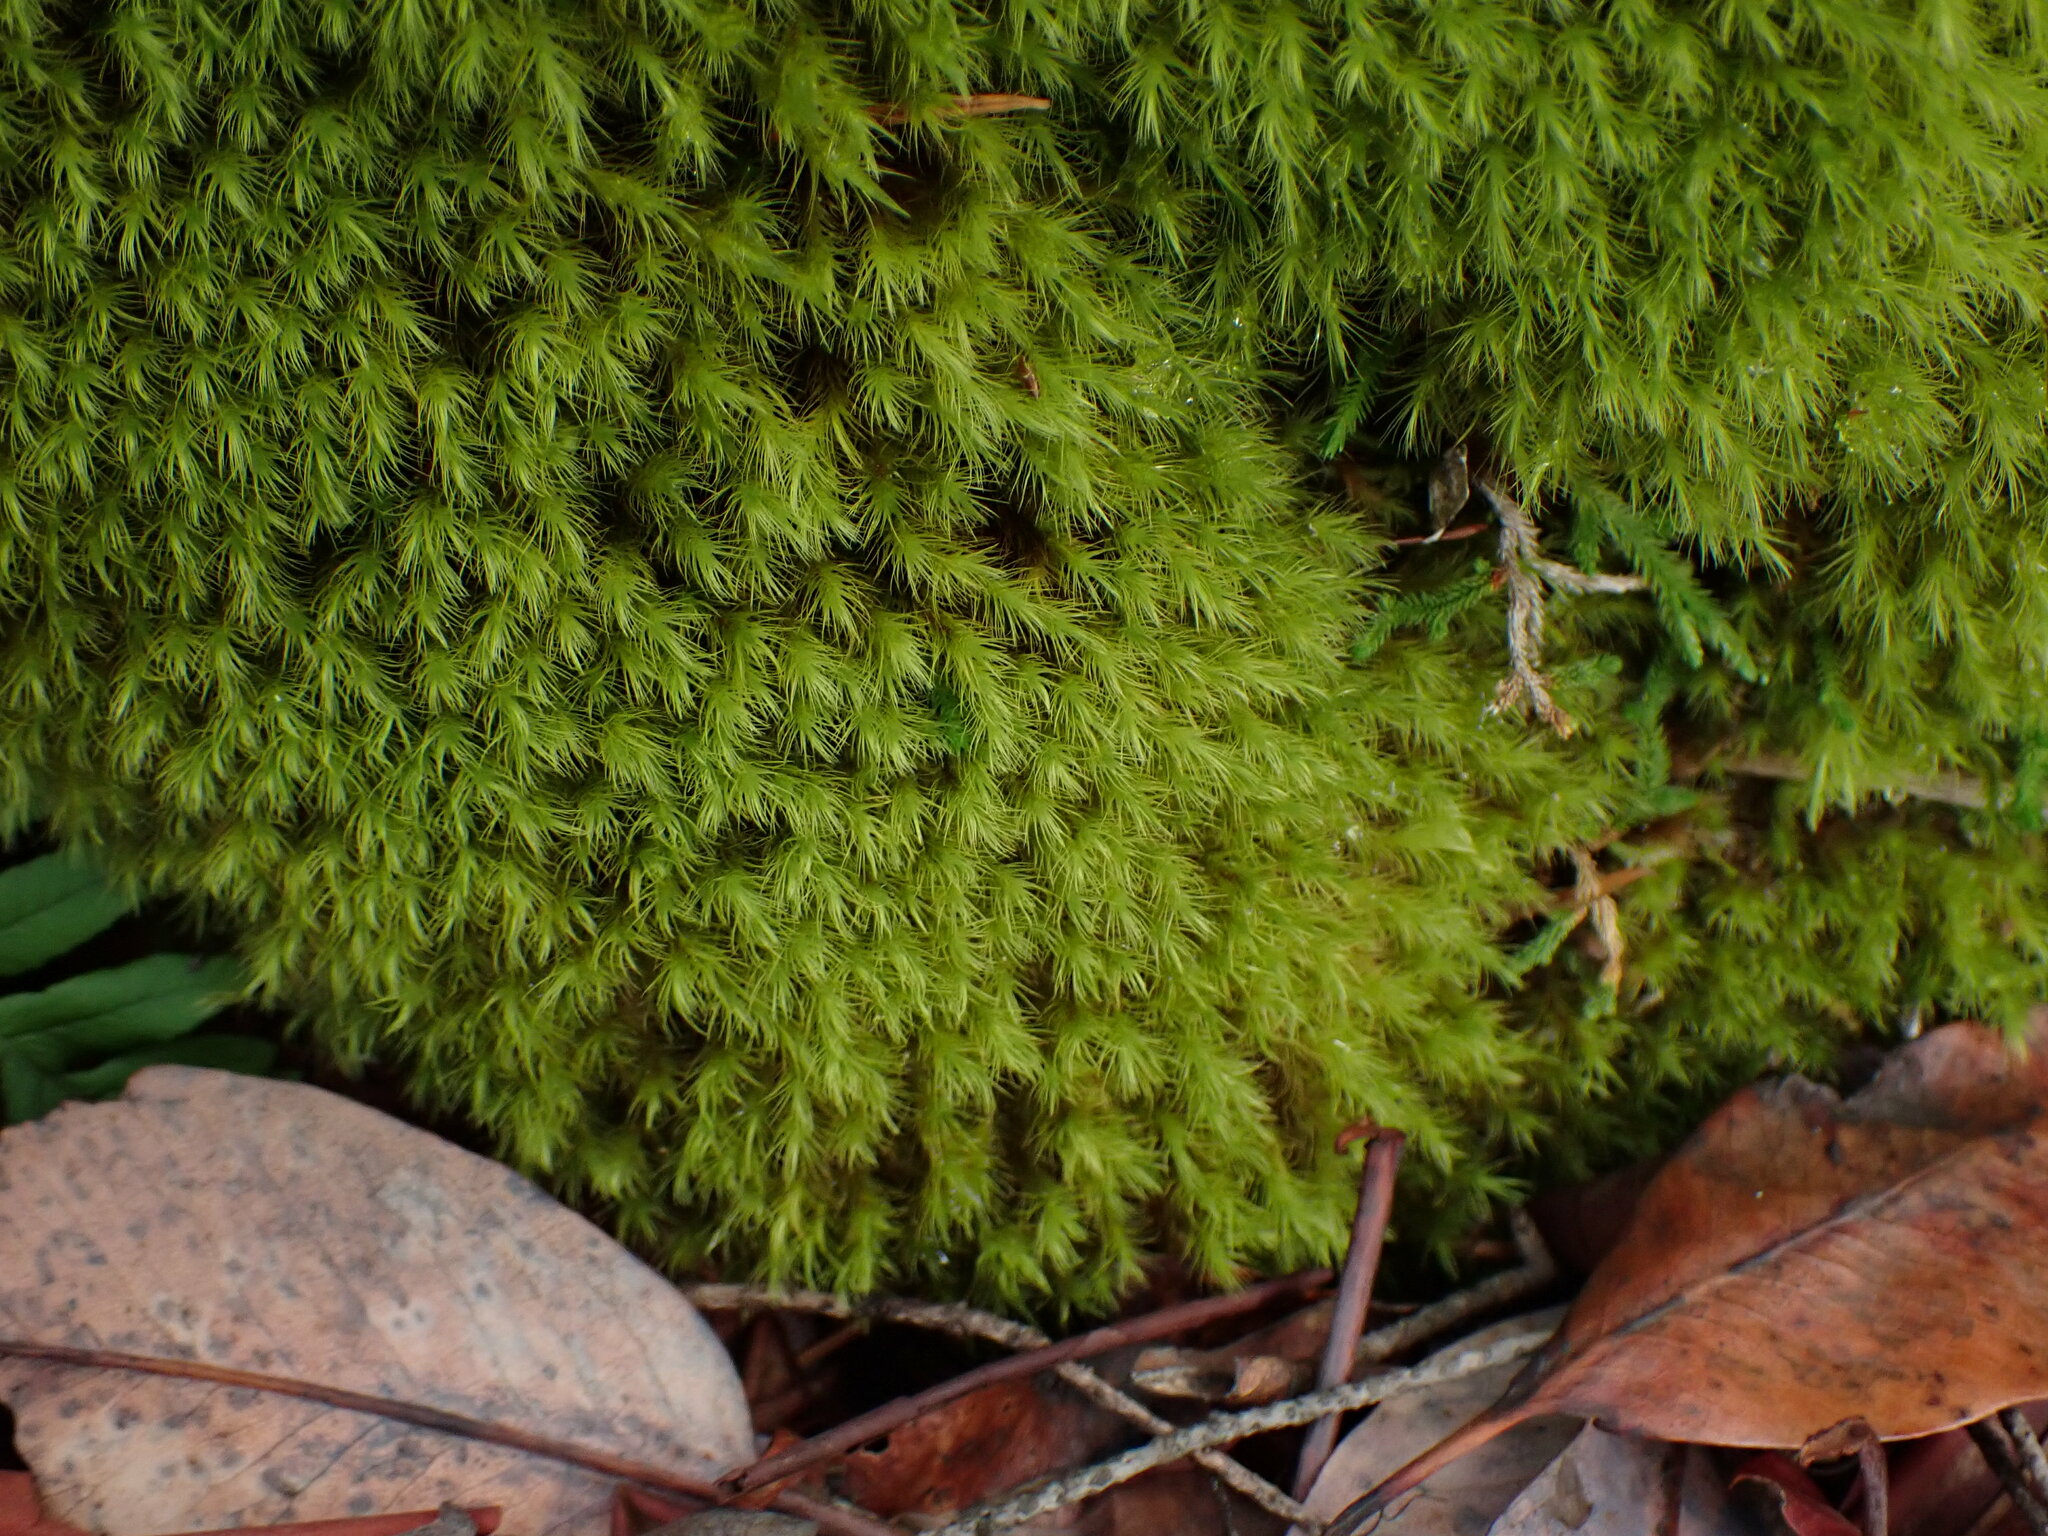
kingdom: Plantae
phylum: Bryophyta
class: Bryopsida
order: Bartramiales
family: Bartramiaceae
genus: Anacolia
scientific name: Anacolia menziesii
